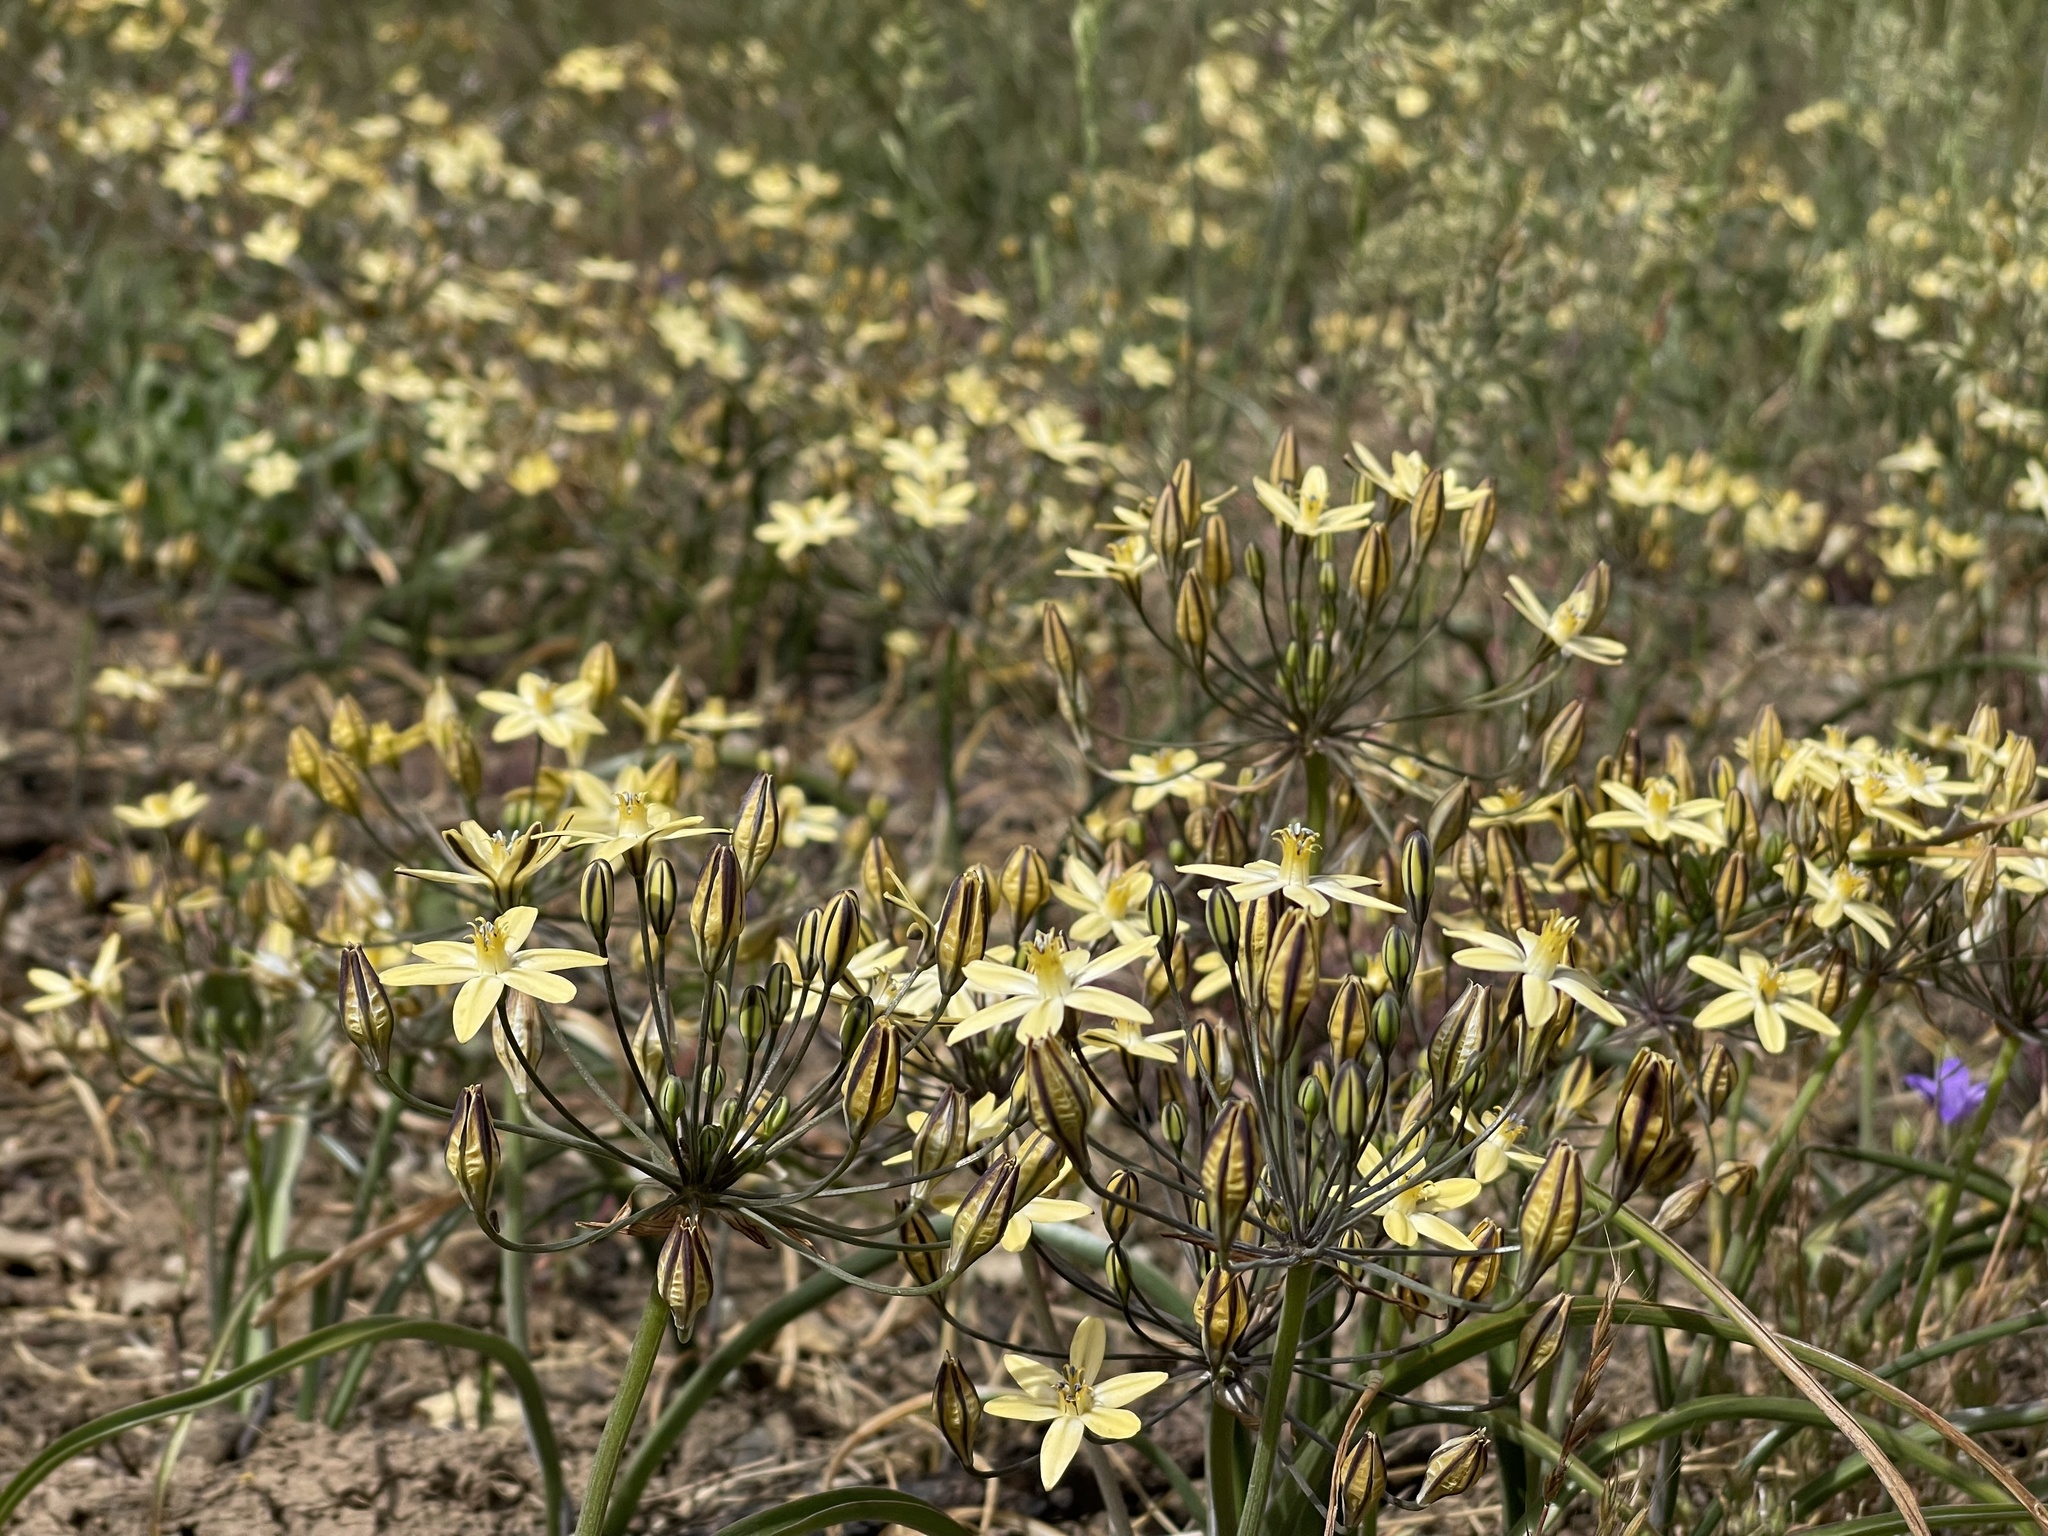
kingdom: Plantae
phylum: Tracheophyta
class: Liliopsida
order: Asparagales
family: Asparagaceae
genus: Triteleia
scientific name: Triteleia ixioides
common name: Yellow-brodiaea
